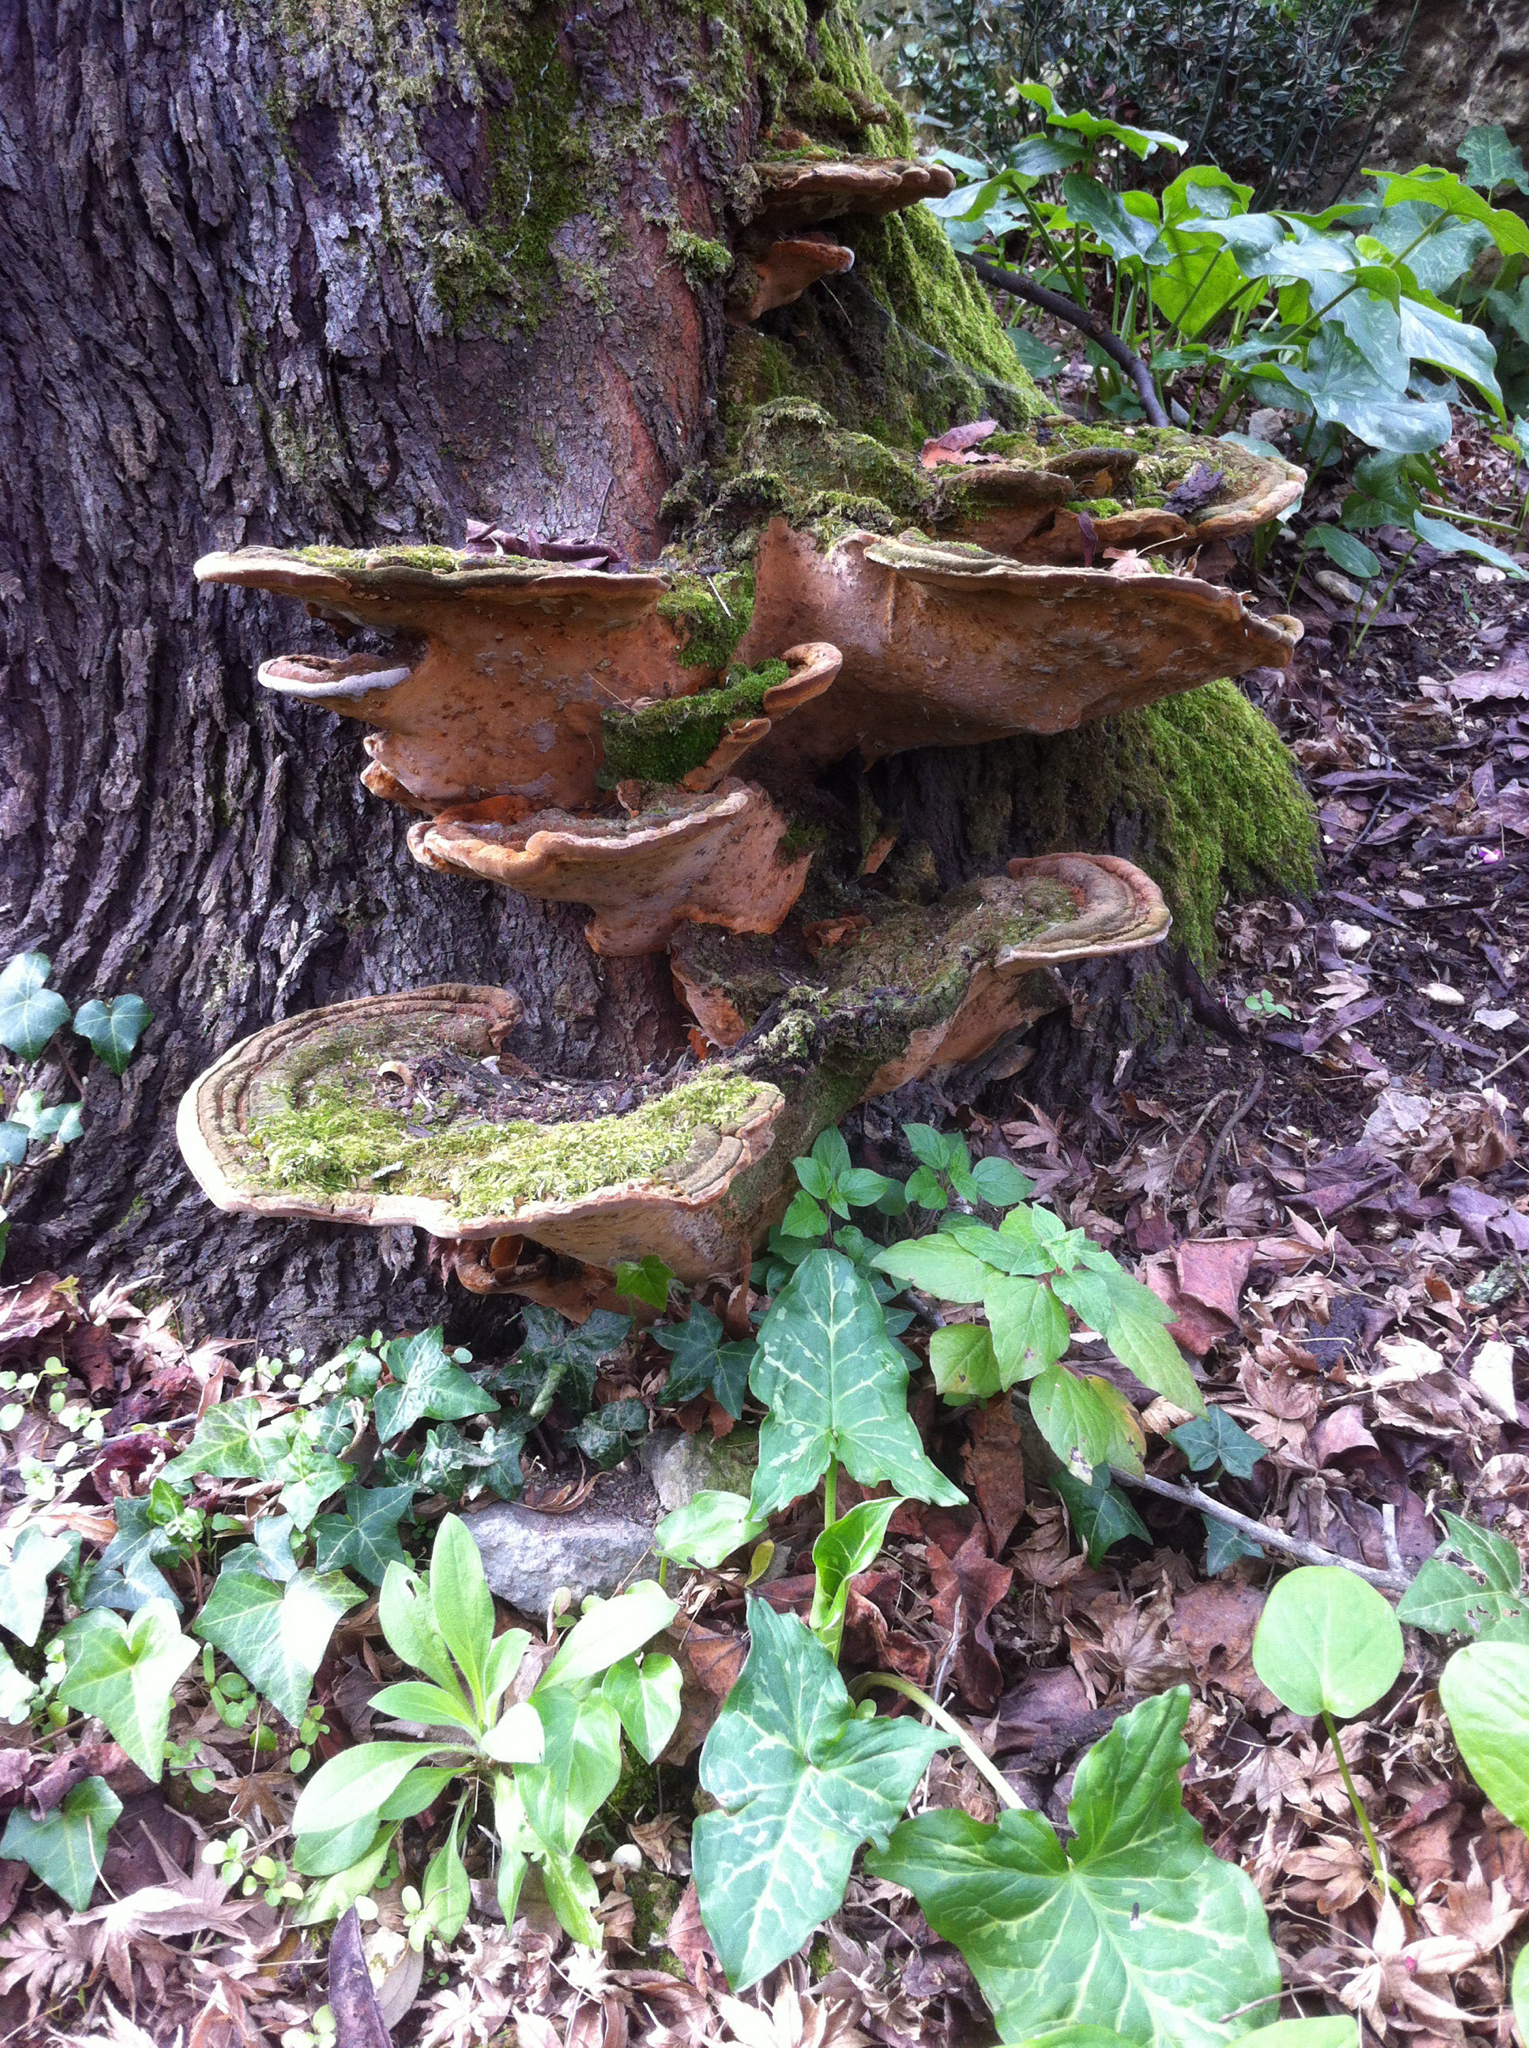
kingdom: Fungi
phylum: Basidiomycota
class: Agaricomycetes
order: Hymenochaetales
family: Hymenochaetaceae
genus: Fuscoporia
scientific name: Fuscoporia torulosa
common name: Tufted bracket
